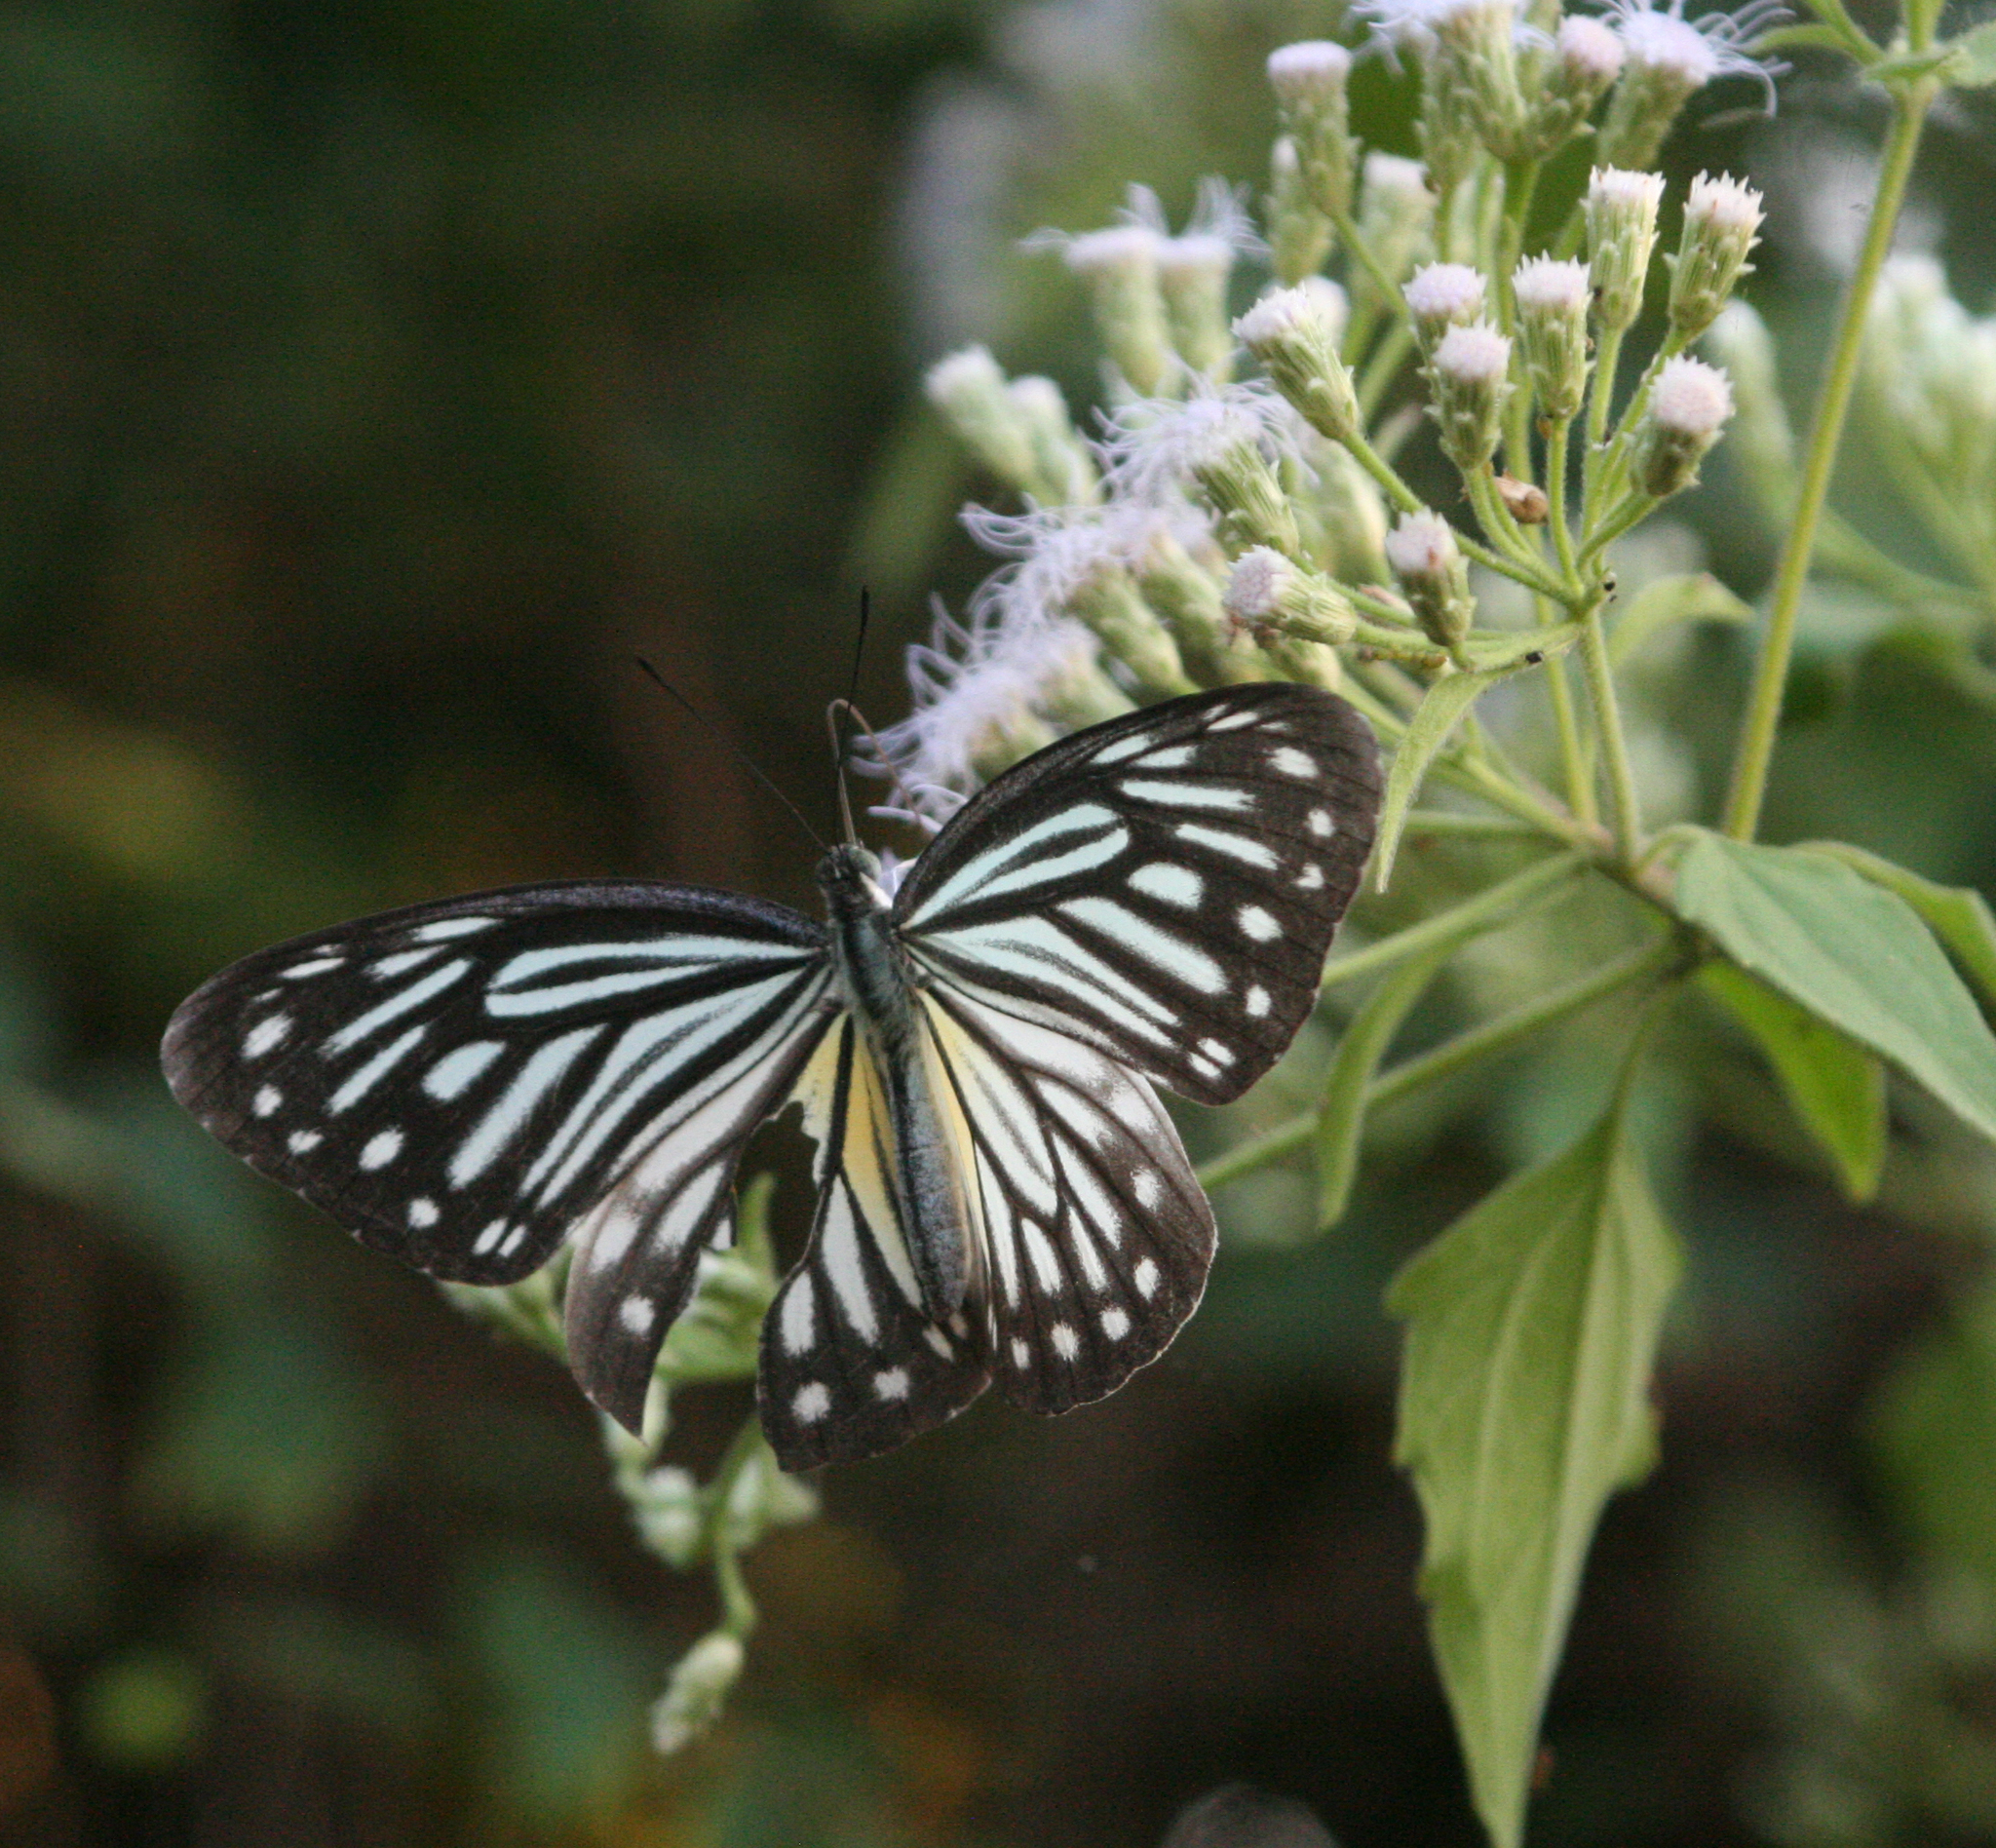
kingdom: Animalia
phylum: Arthropoda
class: Insecta
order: Lepidoptera
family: Pieridae
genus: Pareronia
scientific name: Pareronia hippia
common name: Indian wanderer
